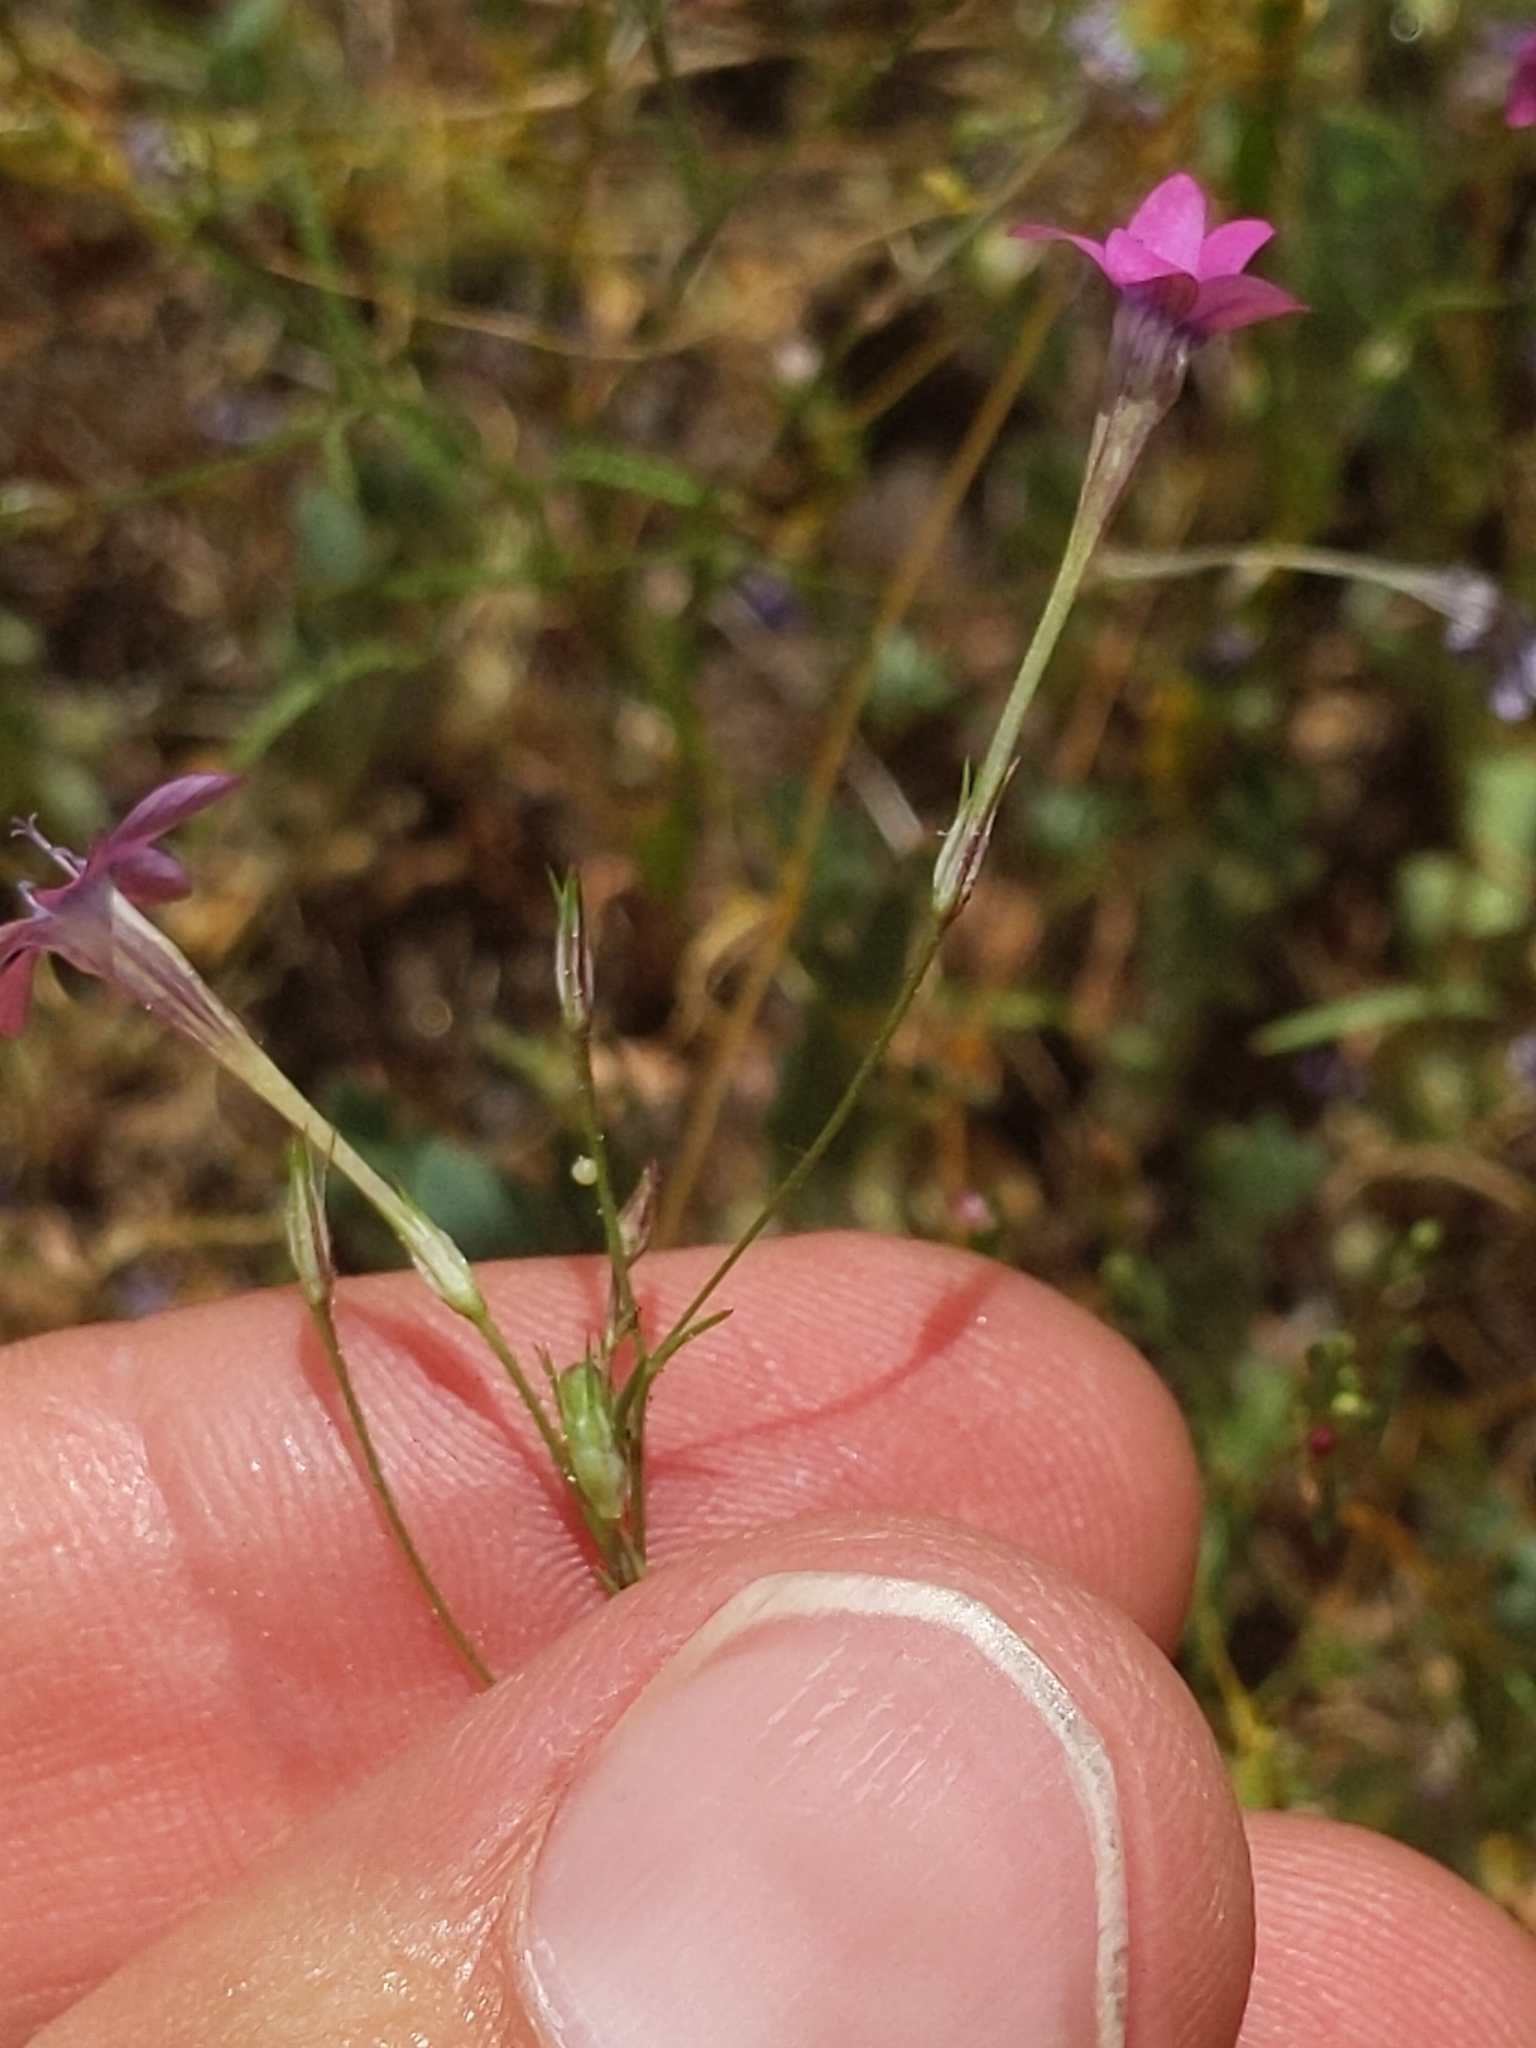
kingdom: Plantae
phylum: Tracheophyta
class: Magnoliopsida
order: Ericales
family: Polemoniaceae
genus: Navarretia
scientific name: Navarretia leptalea
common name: Bridges' pincushionplant
